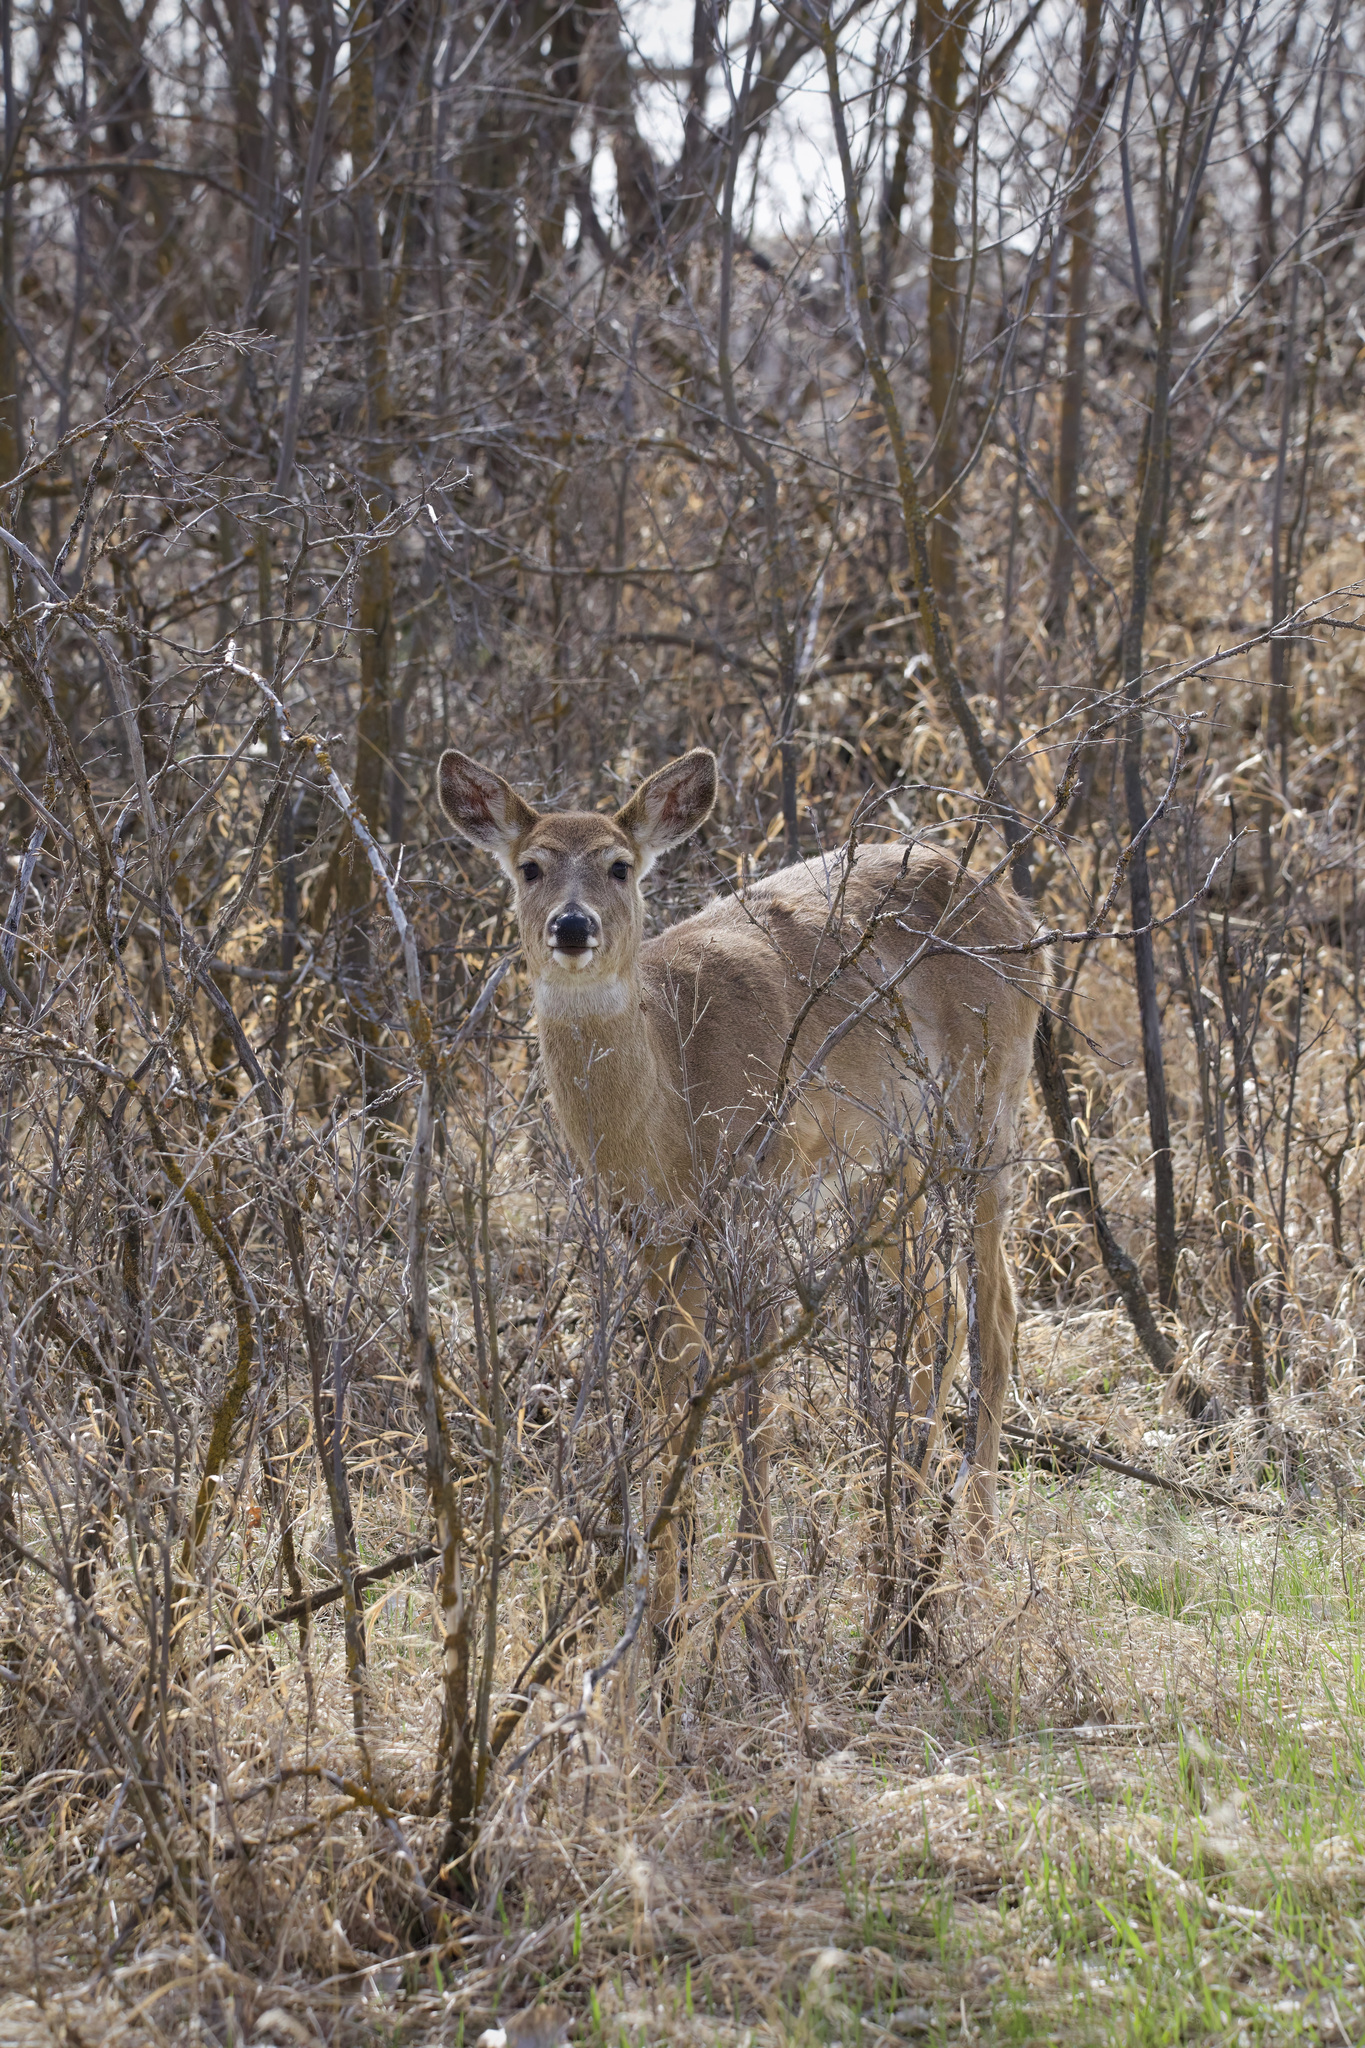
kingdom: Animalia
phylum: Chordata
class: Mammalia
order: Artiodactyla
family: Cervidae
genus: Odocoileus
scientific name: Odocoileus virginianus
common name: White-tailed deer
